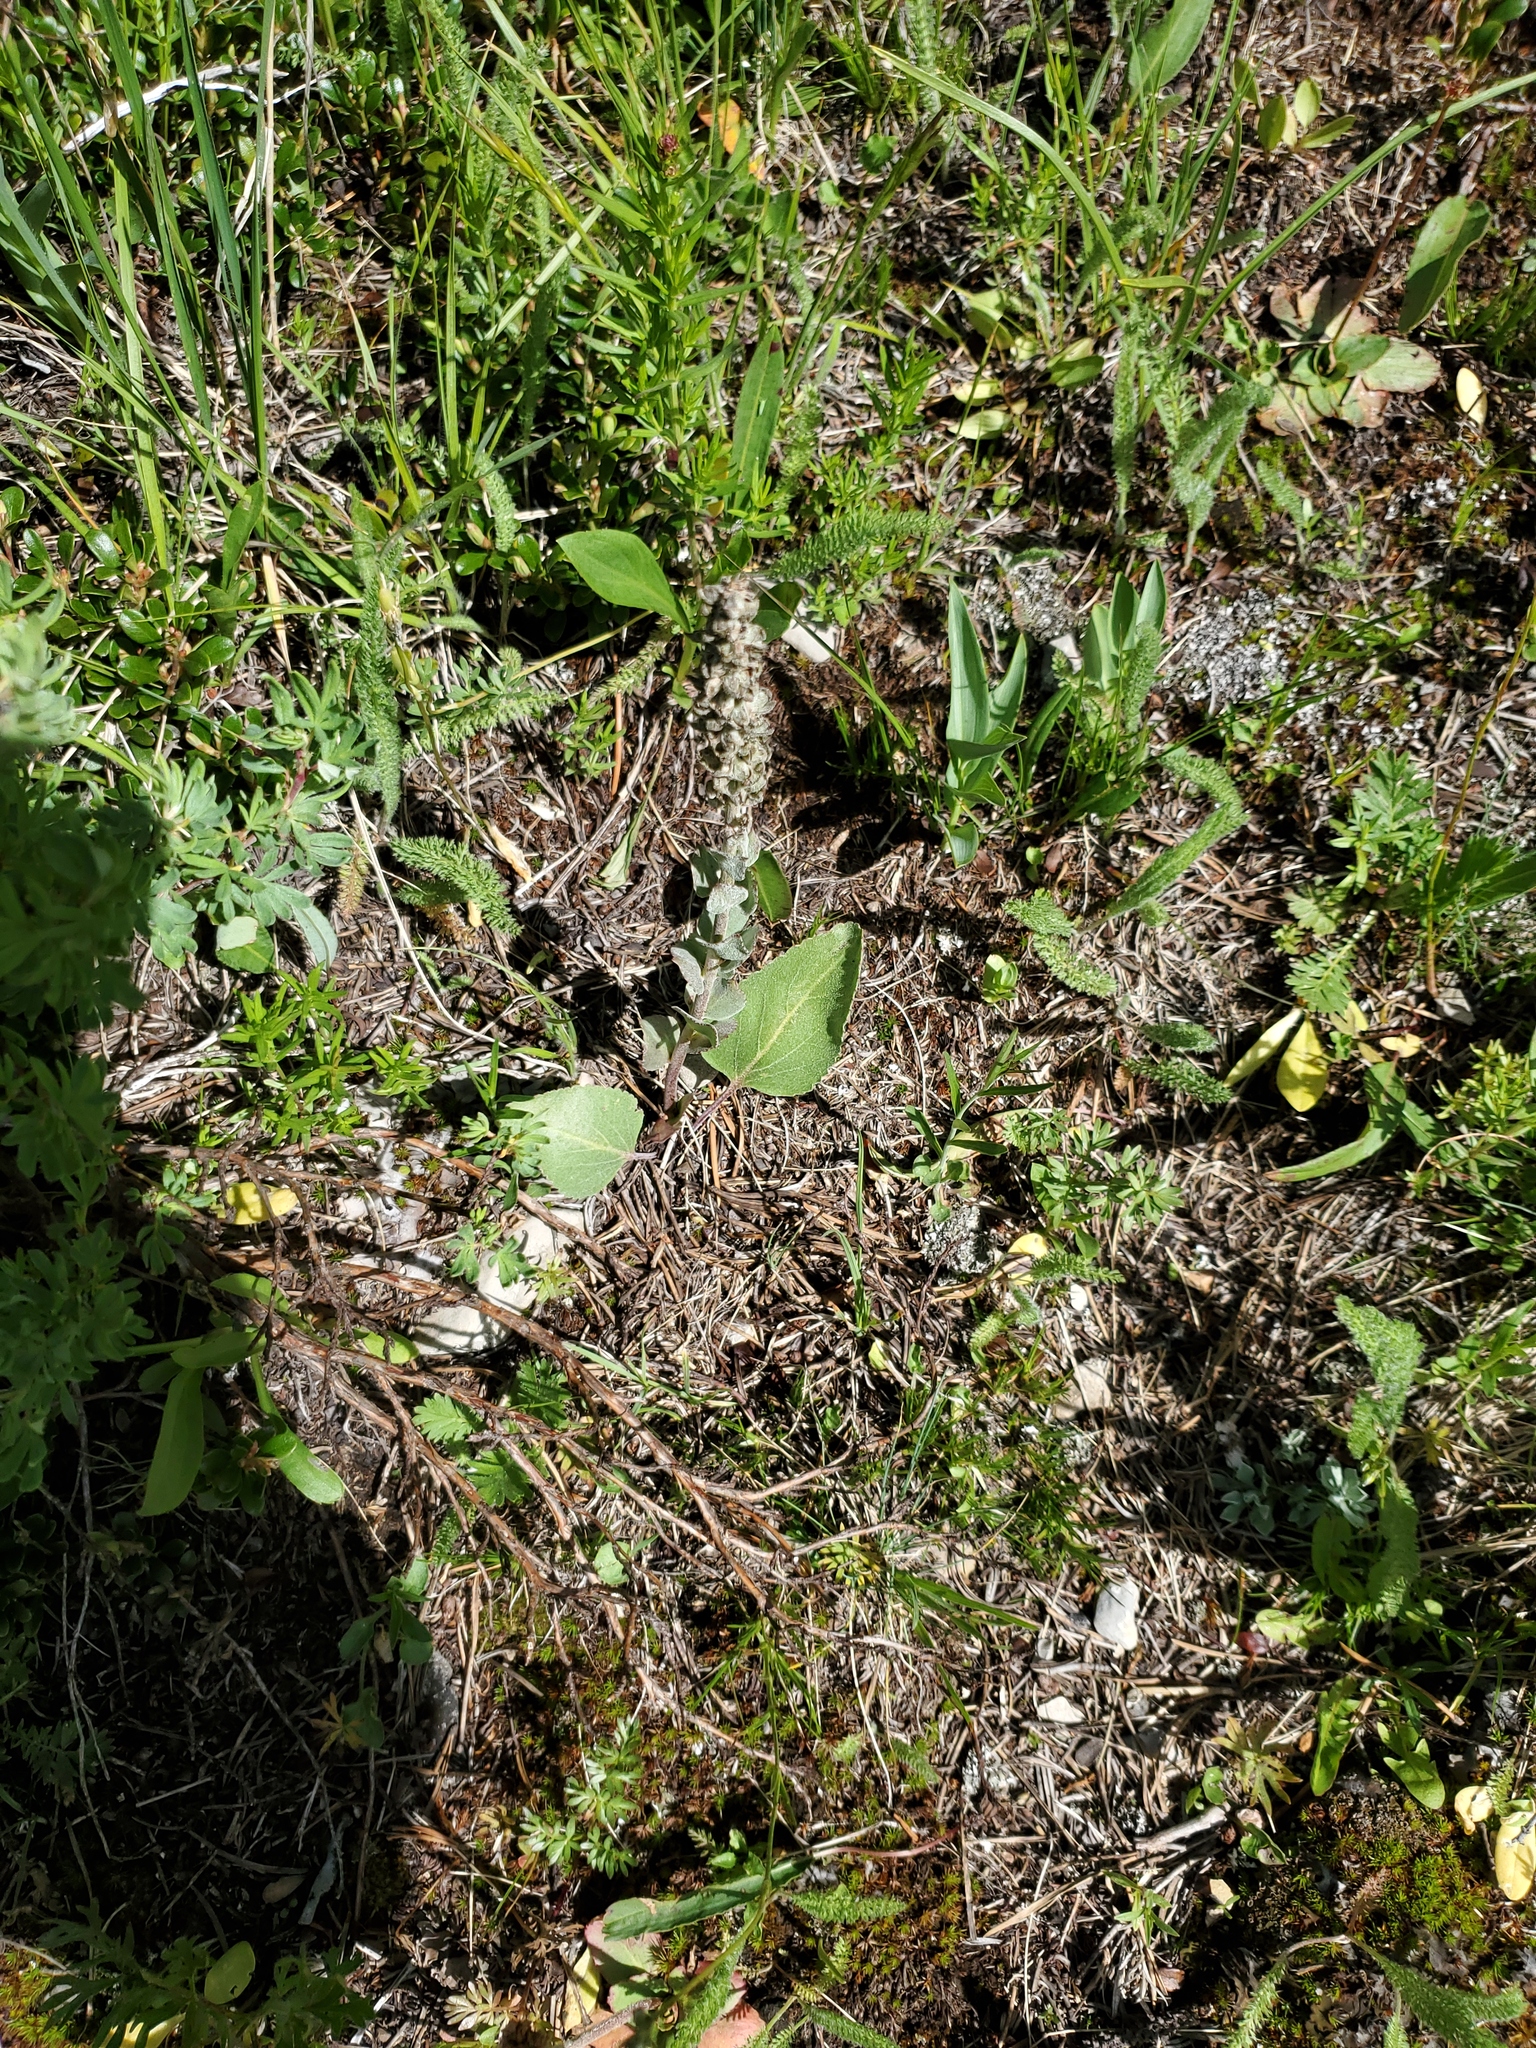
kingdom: Plantae
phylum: Tracheophyta
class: Magnoliopsida
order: Lamiales
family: Plantaginaceae
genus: Synthyris
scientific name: Synthyris wyomingensis
